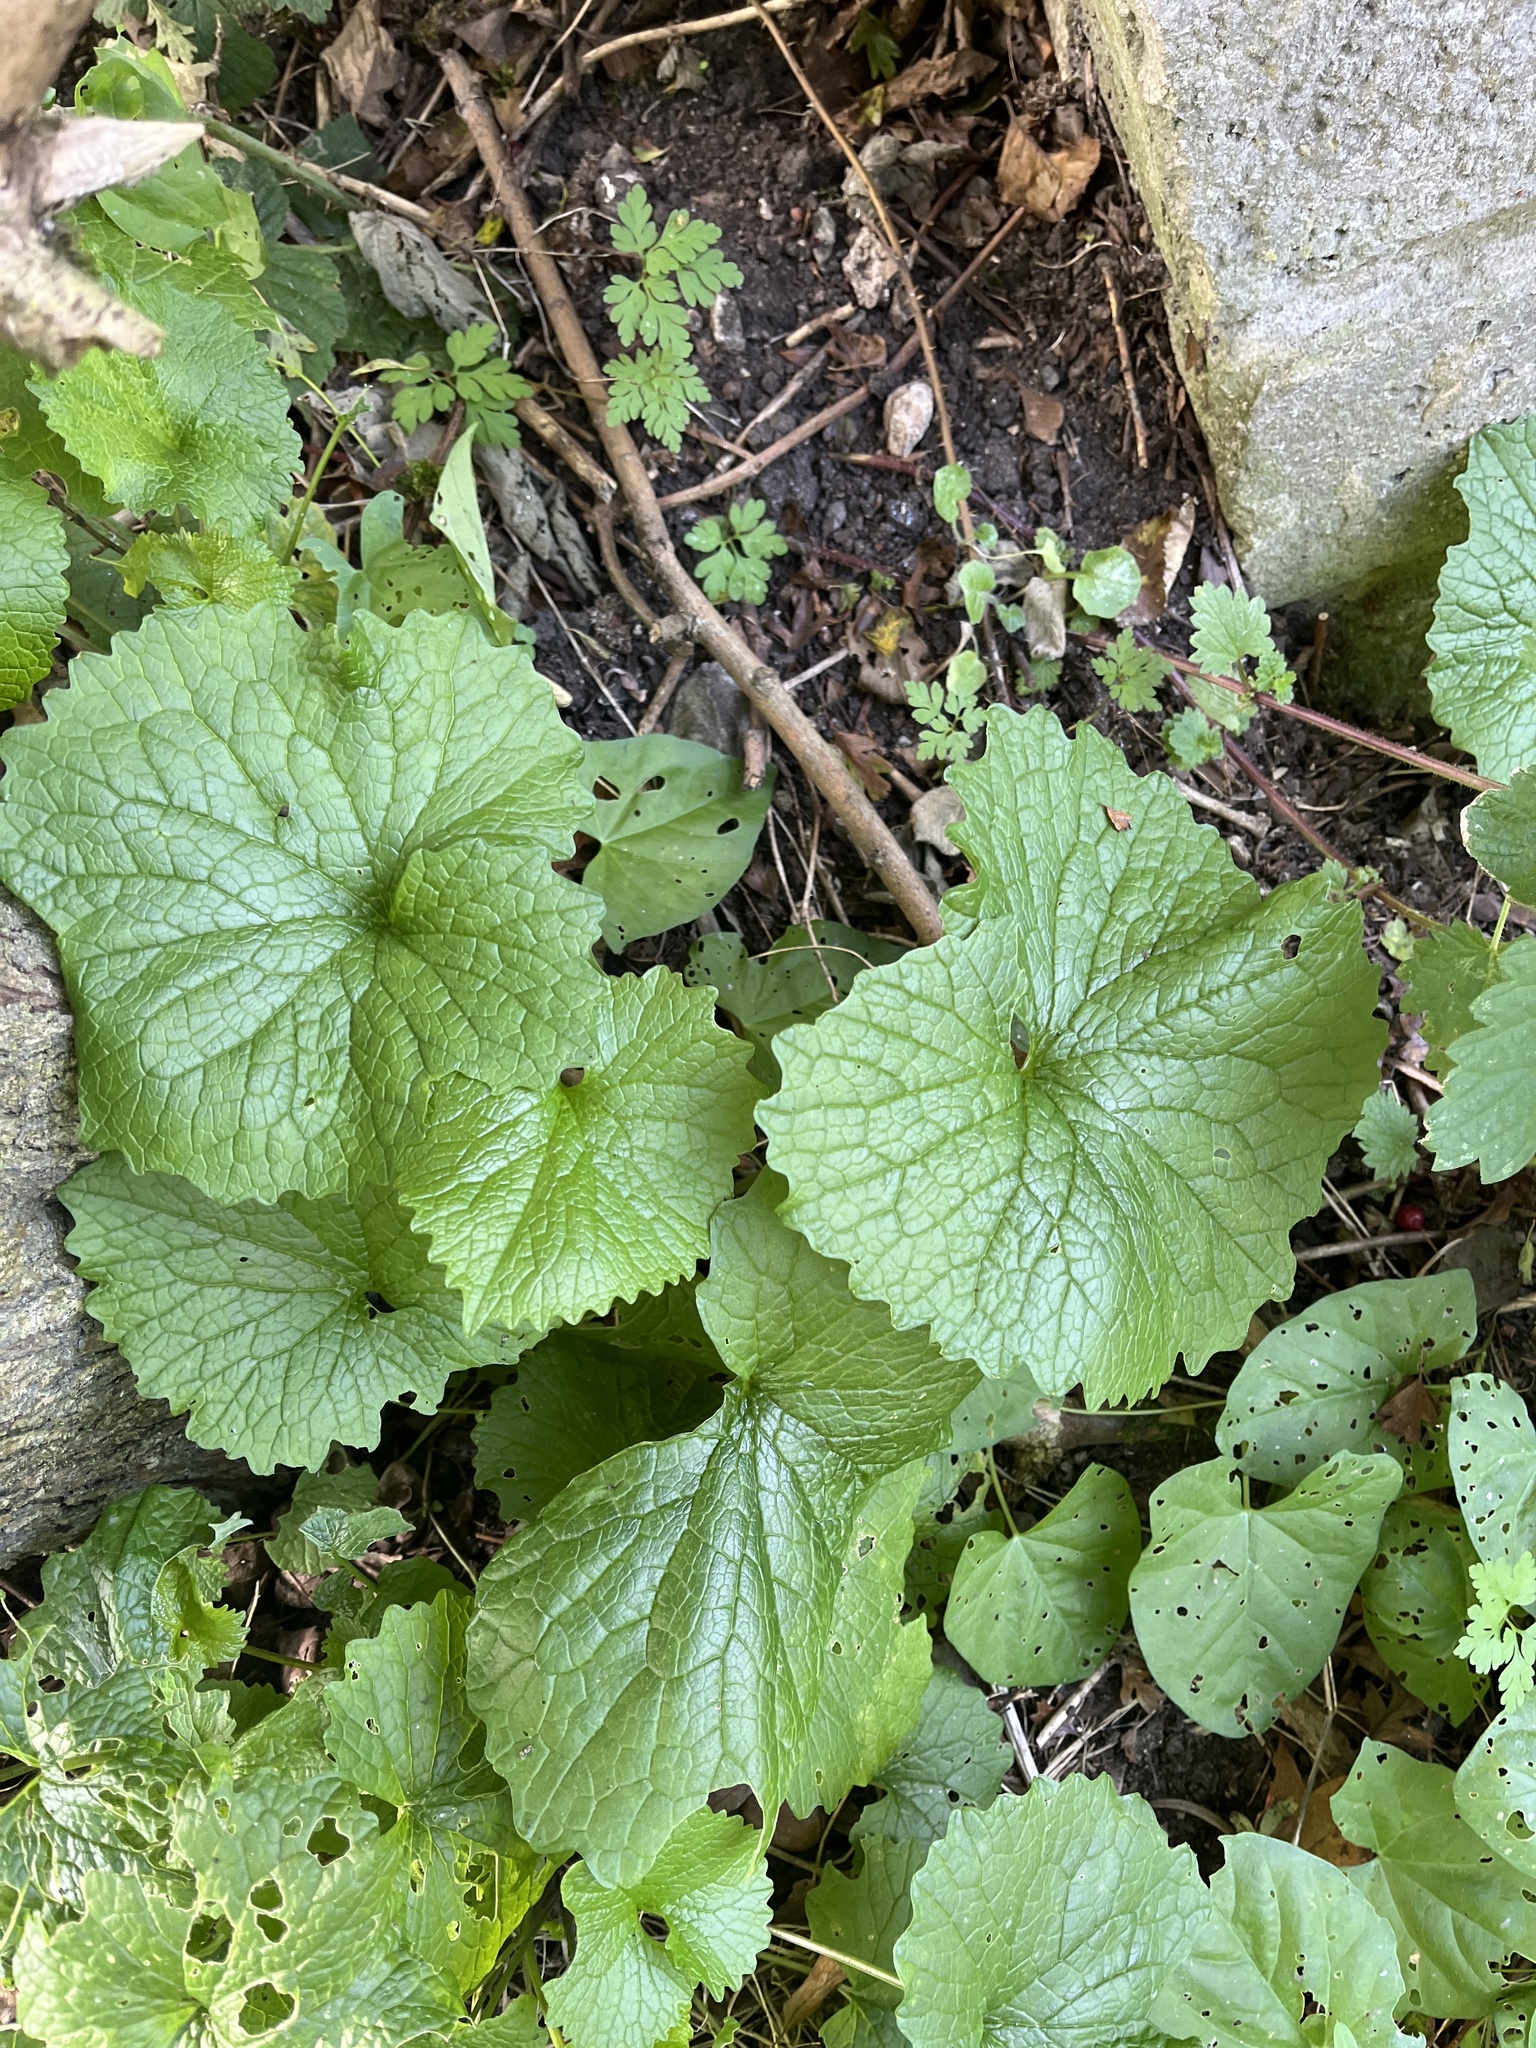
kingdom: Plantae
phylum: Tracheophyta
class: Magnoliopsida
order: Brassicales
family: Brassicaceae
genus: Alliaria
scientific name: Alliaria petiolata
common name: Garlic mustard
